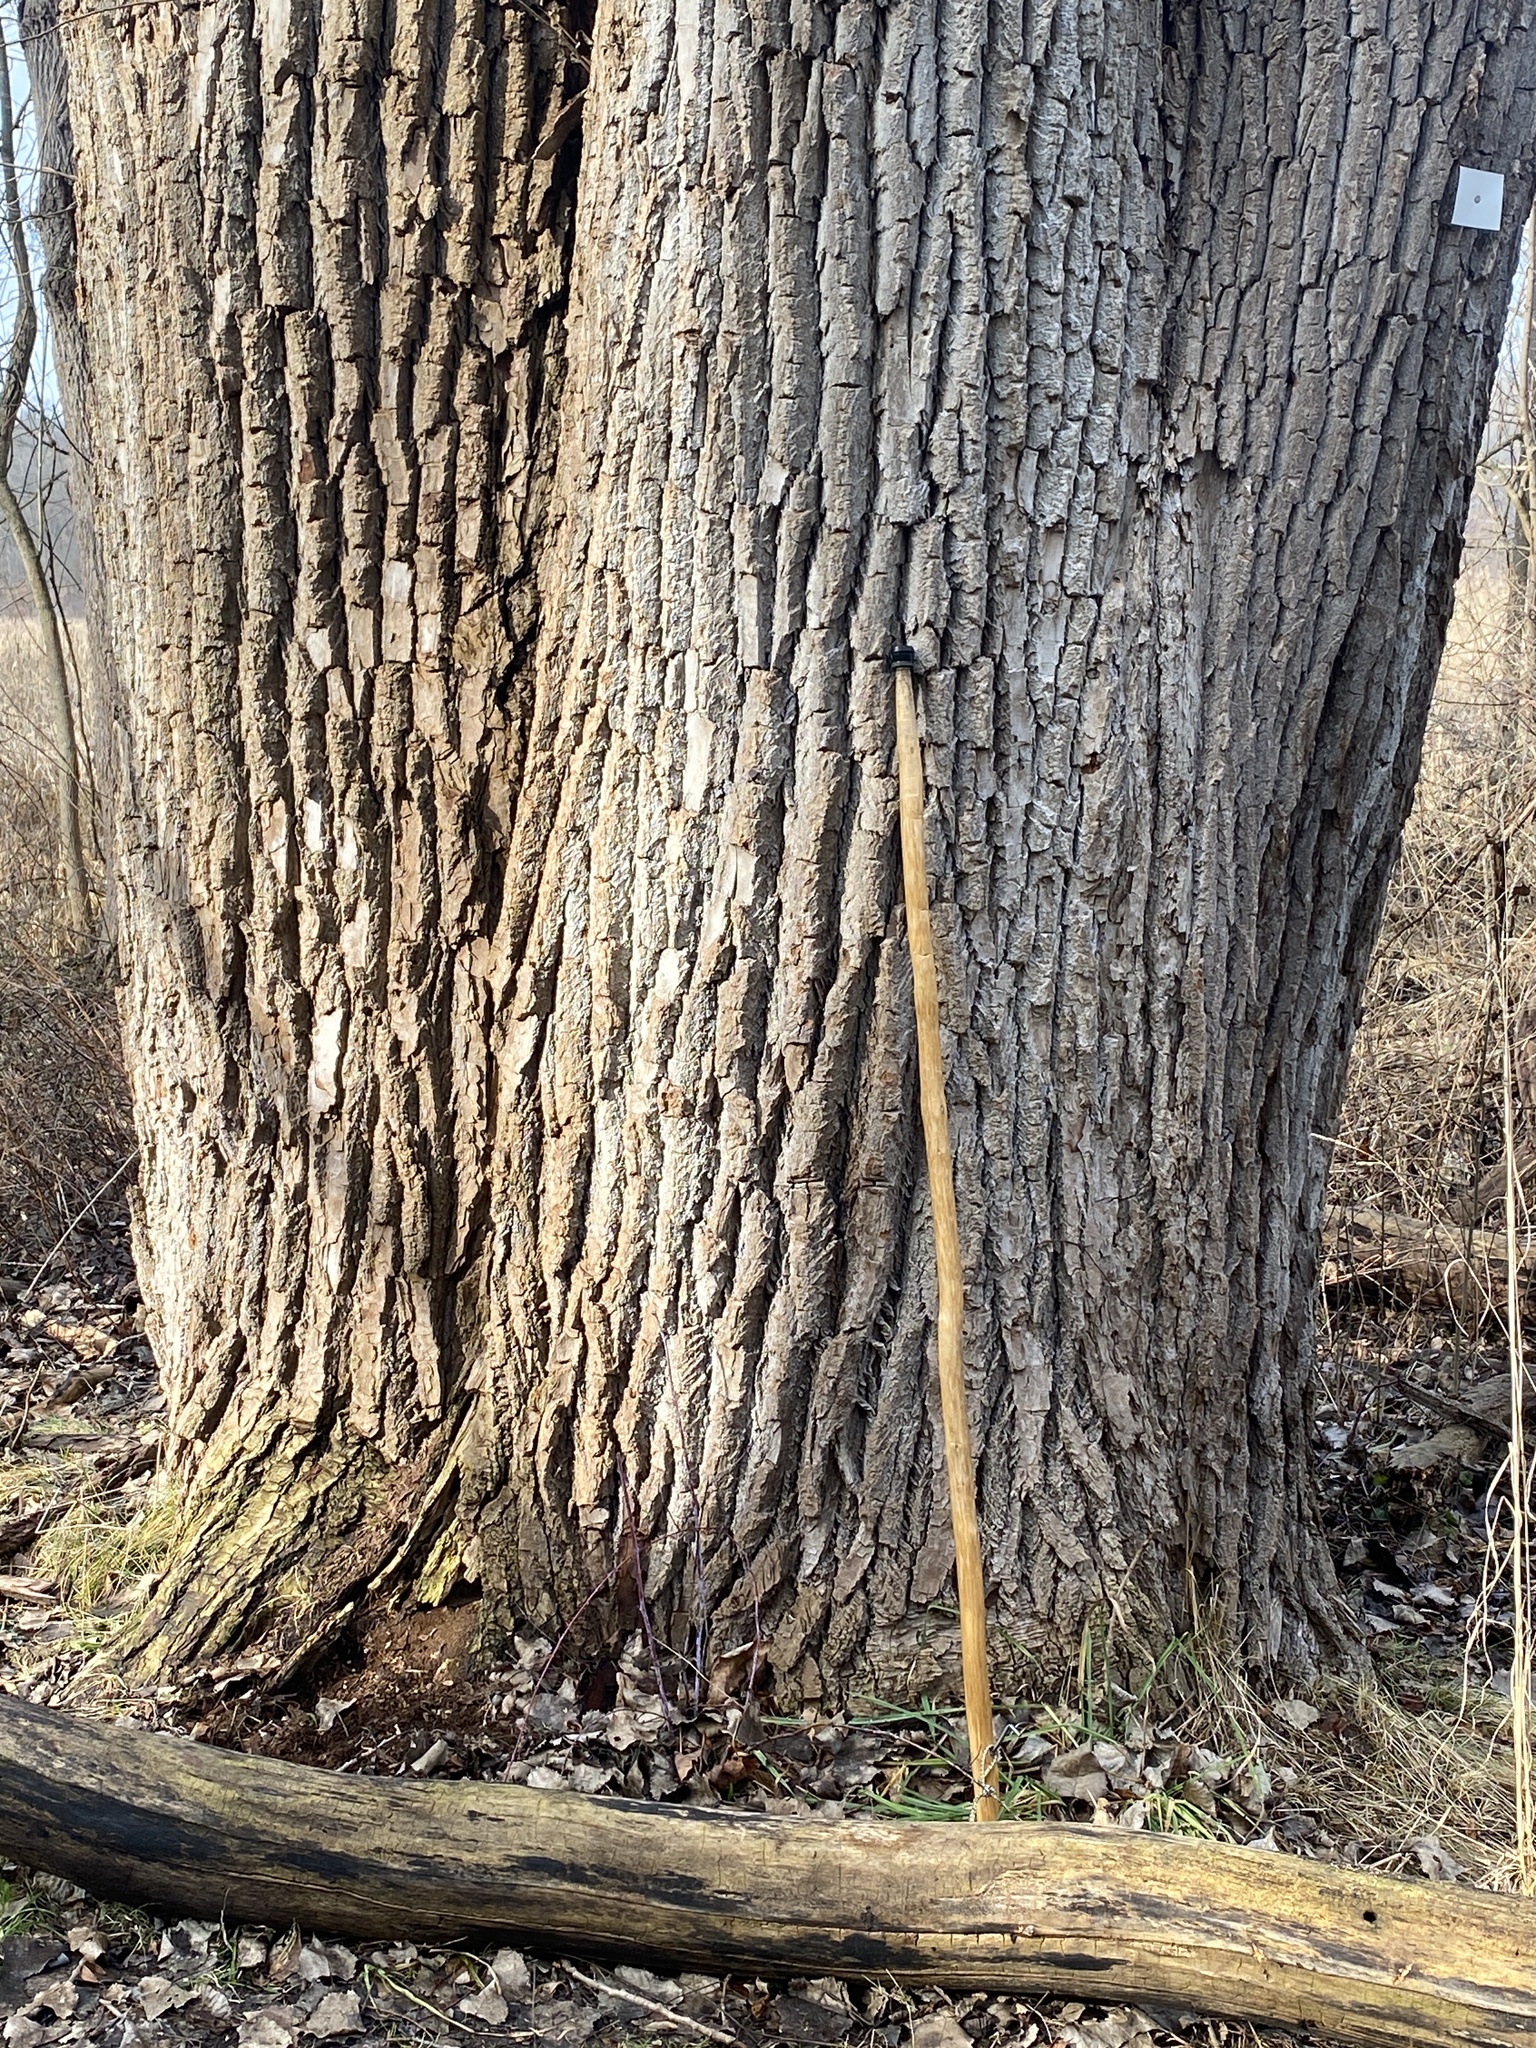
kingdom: Plantae
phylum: Tracheophyta
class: Magnoliopsida
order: Malpighiales
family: Salicaceae
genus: Populus
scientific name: Populus deltoides
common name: Eastern cottonwood
